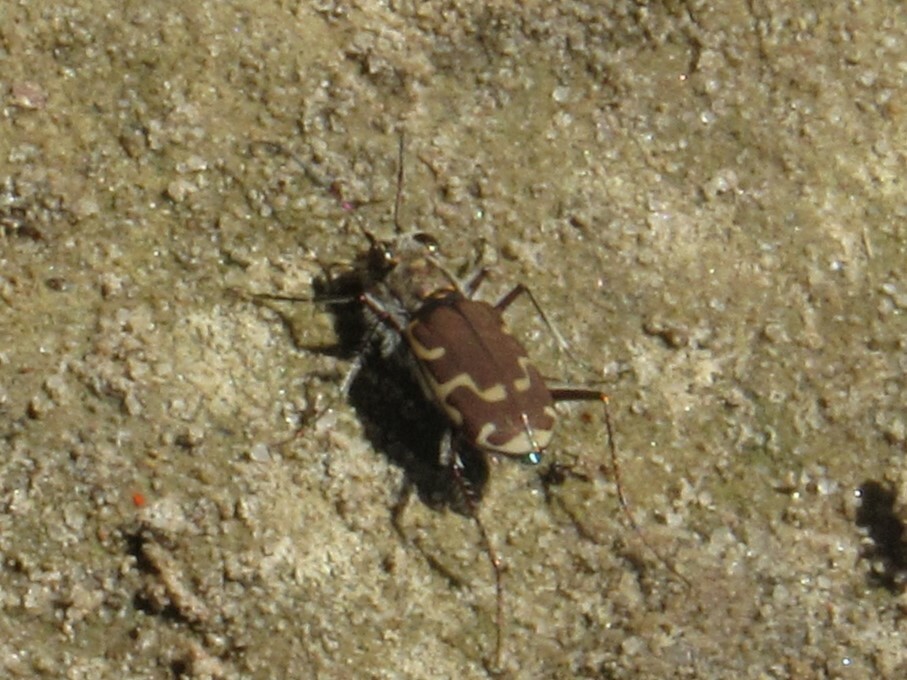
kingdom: Animalia
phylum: Arthropoda
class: Insecta
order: Coleoptera
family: Carabidae
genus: Cicindela
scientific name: Cicindela repanda
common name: Bronzed tiger beetle
